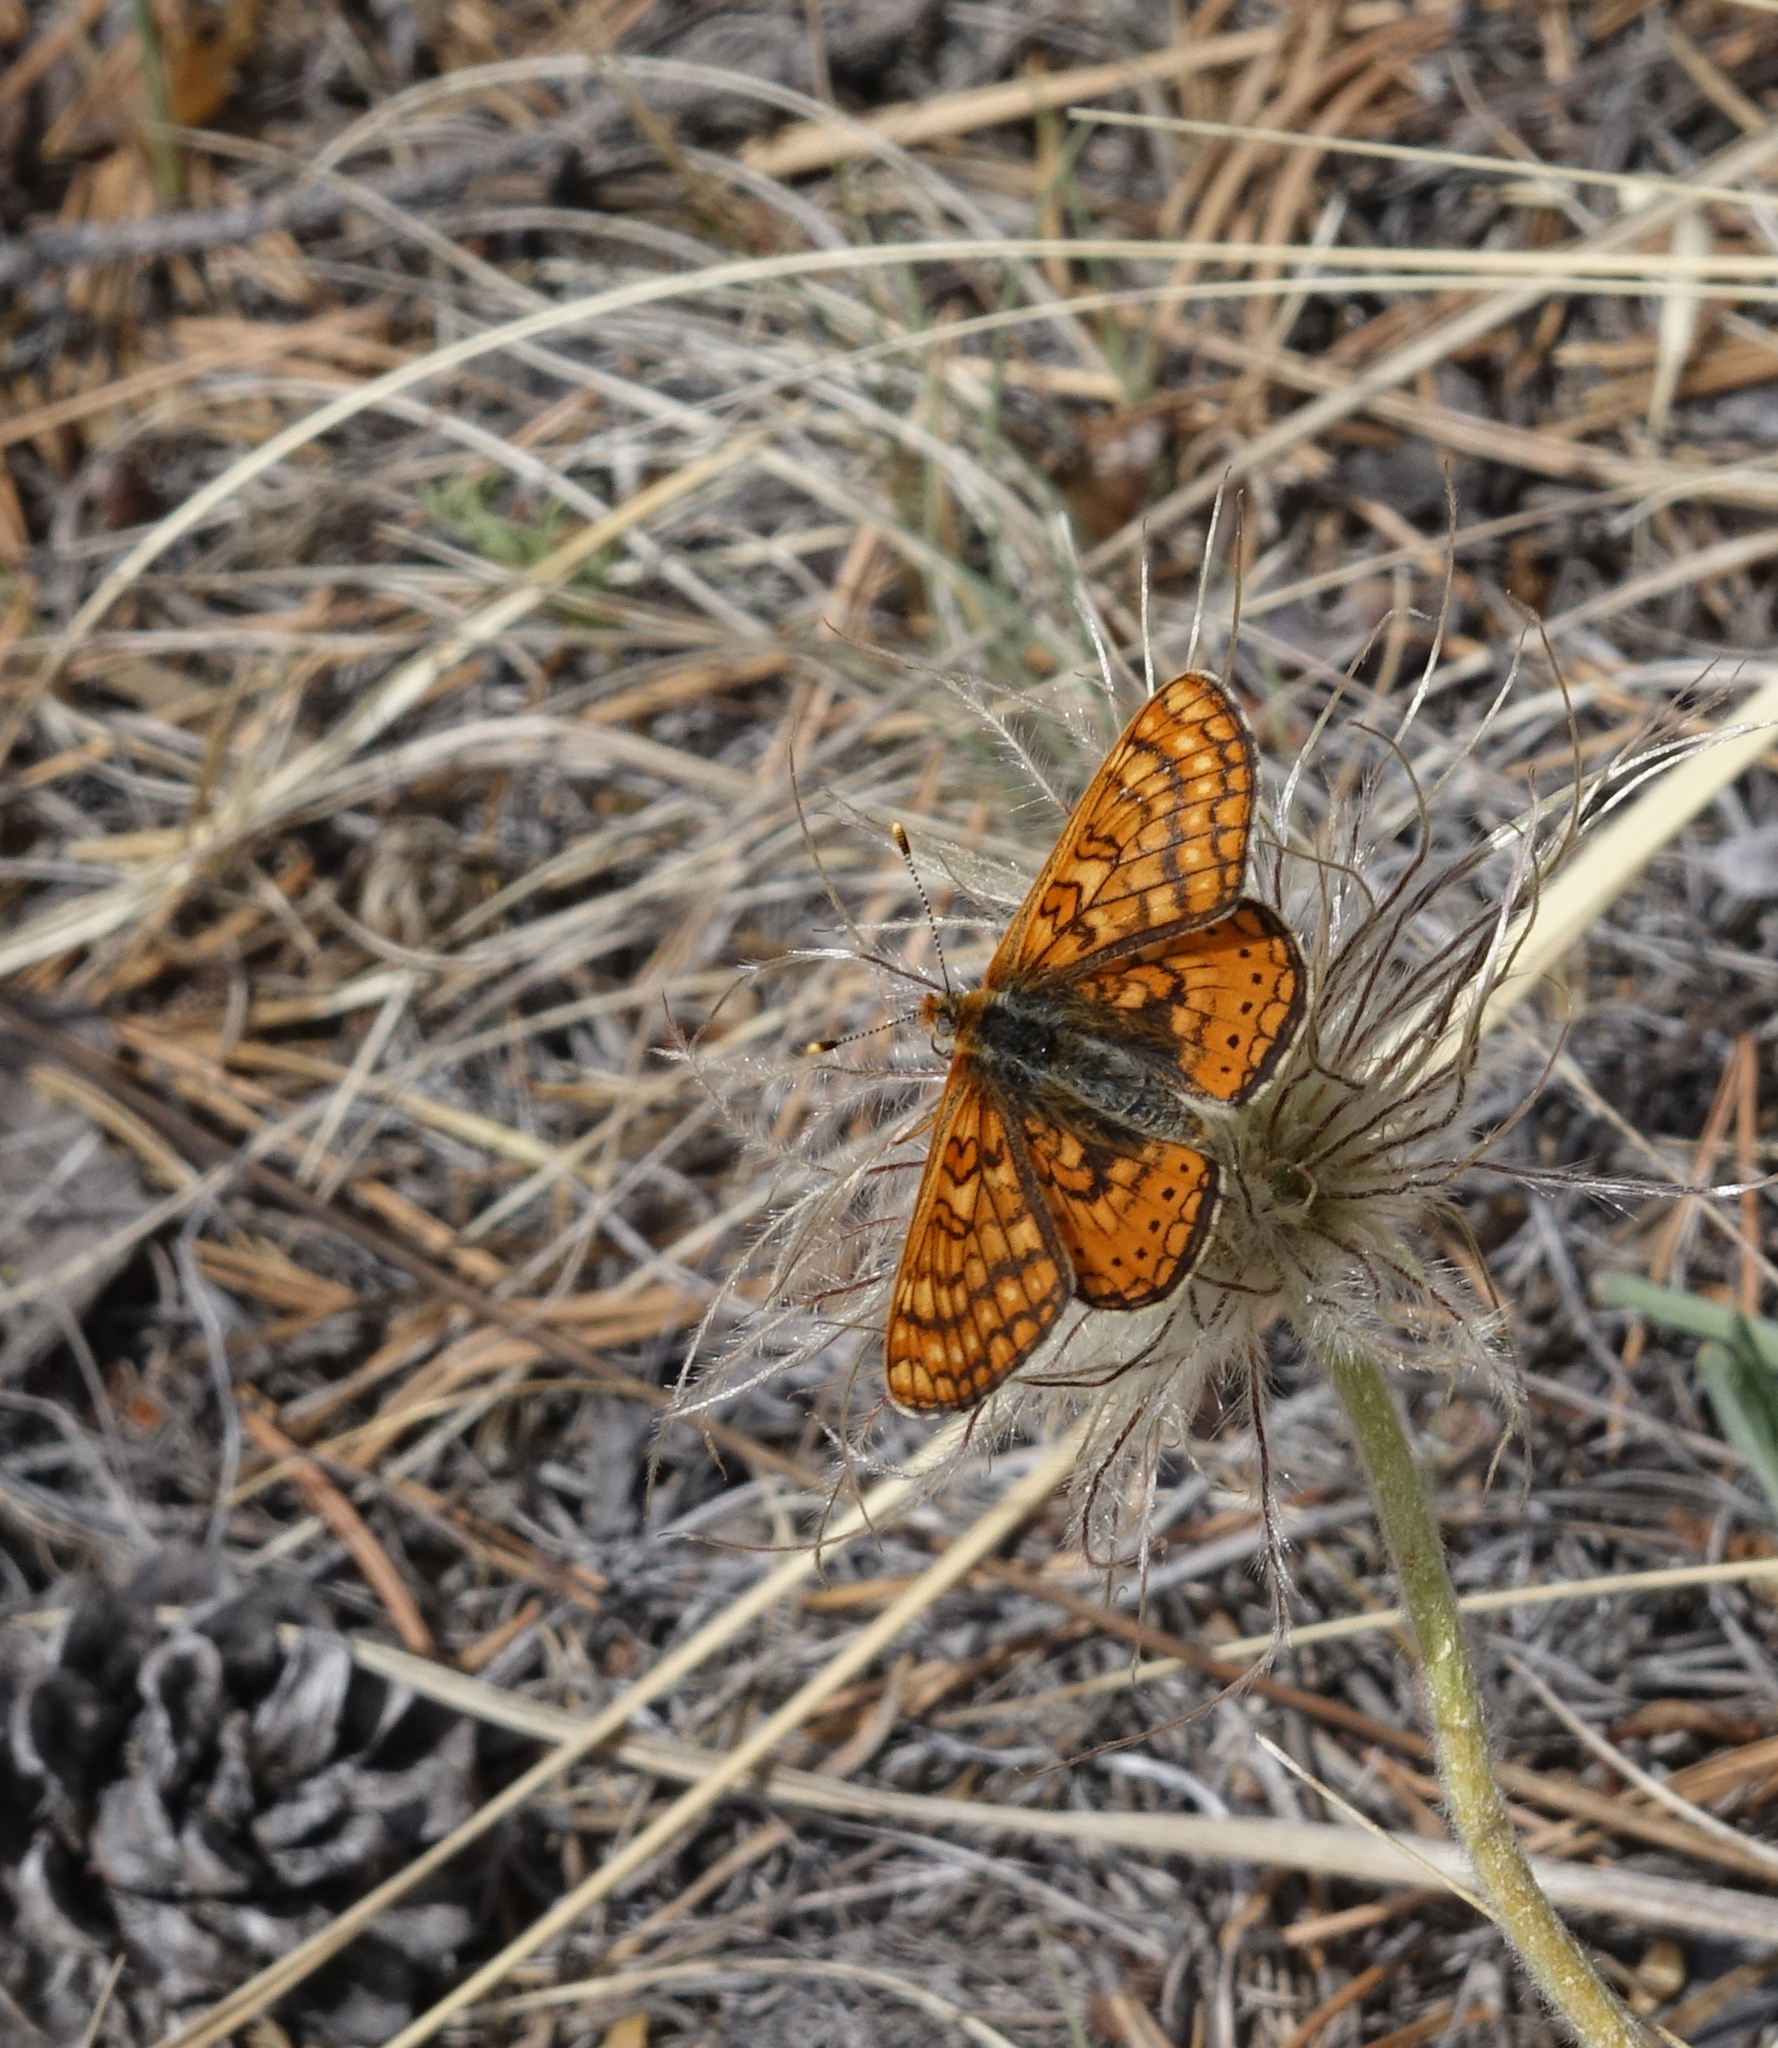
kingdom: Plantae
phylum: Tracheophyta
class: Magnoliopsida
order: Ranunculales
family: Ranunculaceae
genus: Pulsatilla
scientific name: Pulsatilla turczaninovii
